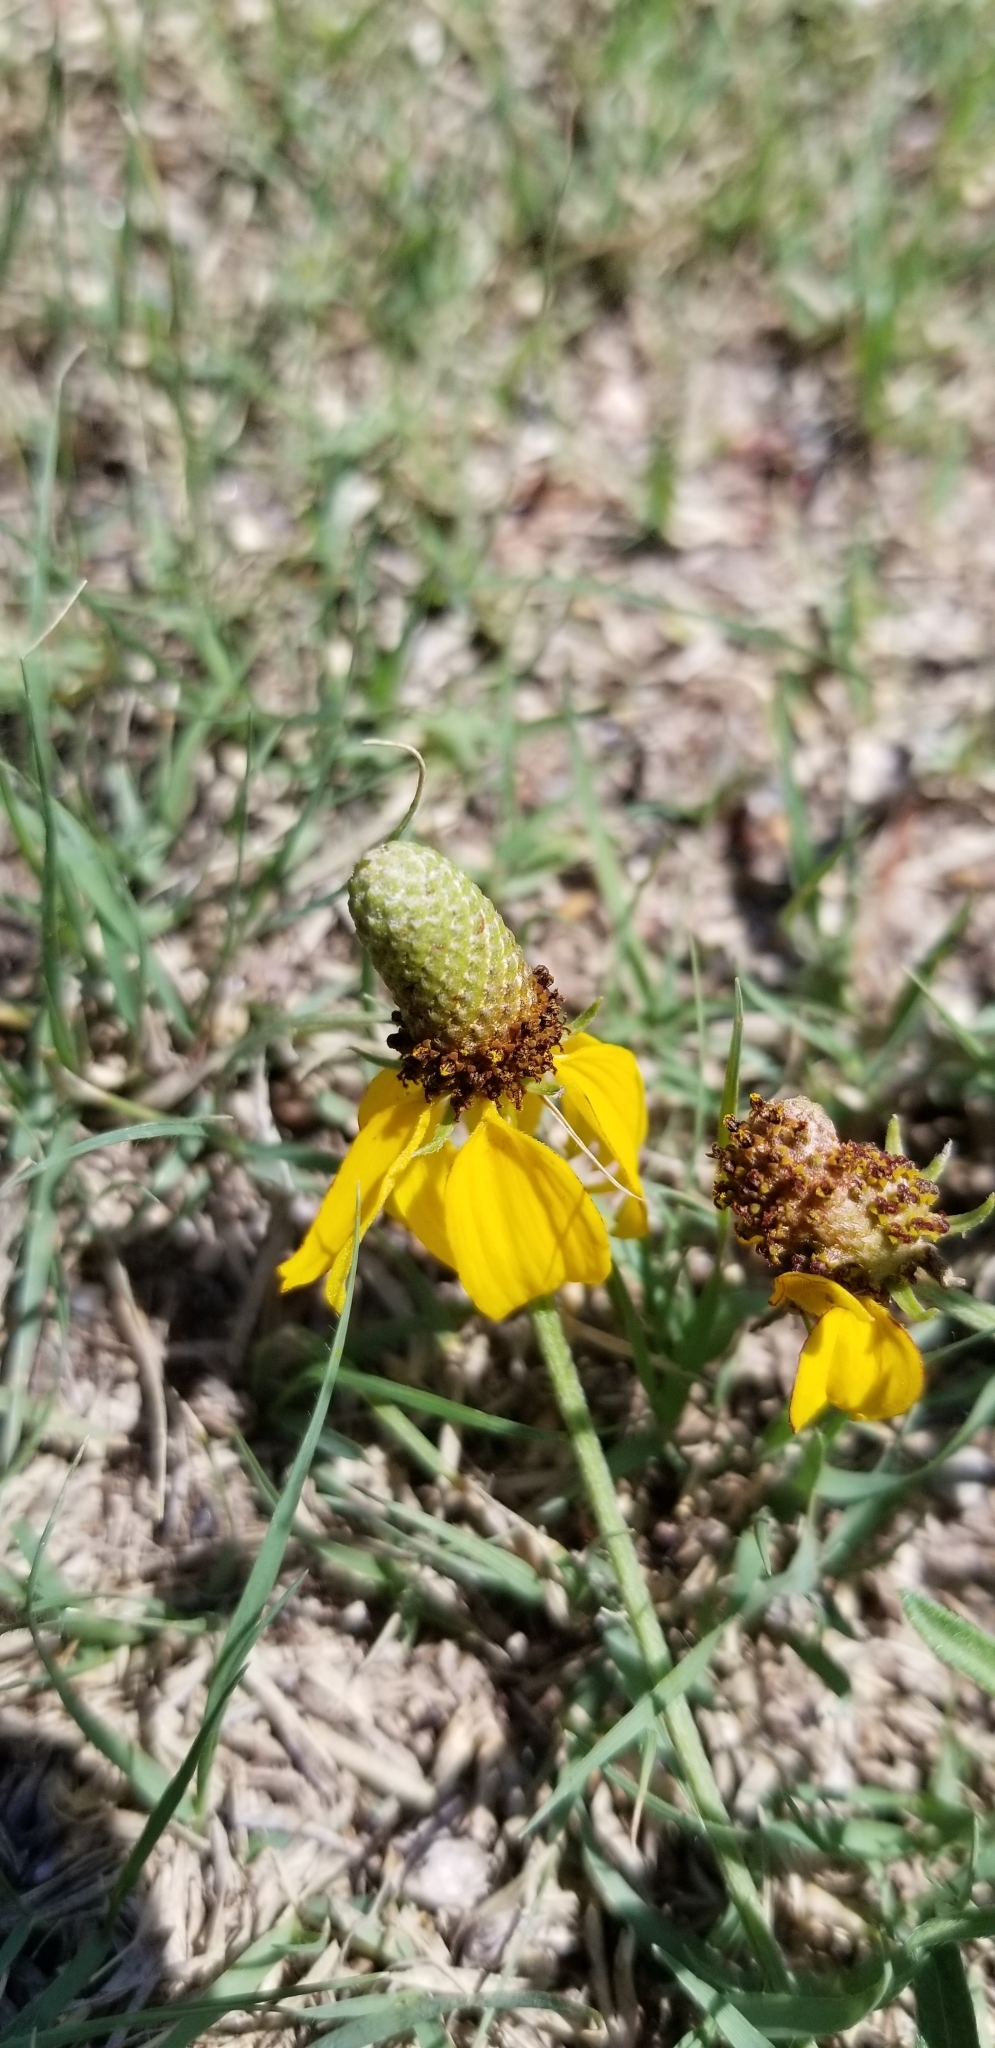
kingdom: Plantae
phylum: Tracheophyta
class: Magnoliopsida
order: Asterales
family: Asteraceae
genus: Ratibida
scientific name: Ratibida columnifera
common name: Prairie coneflower
